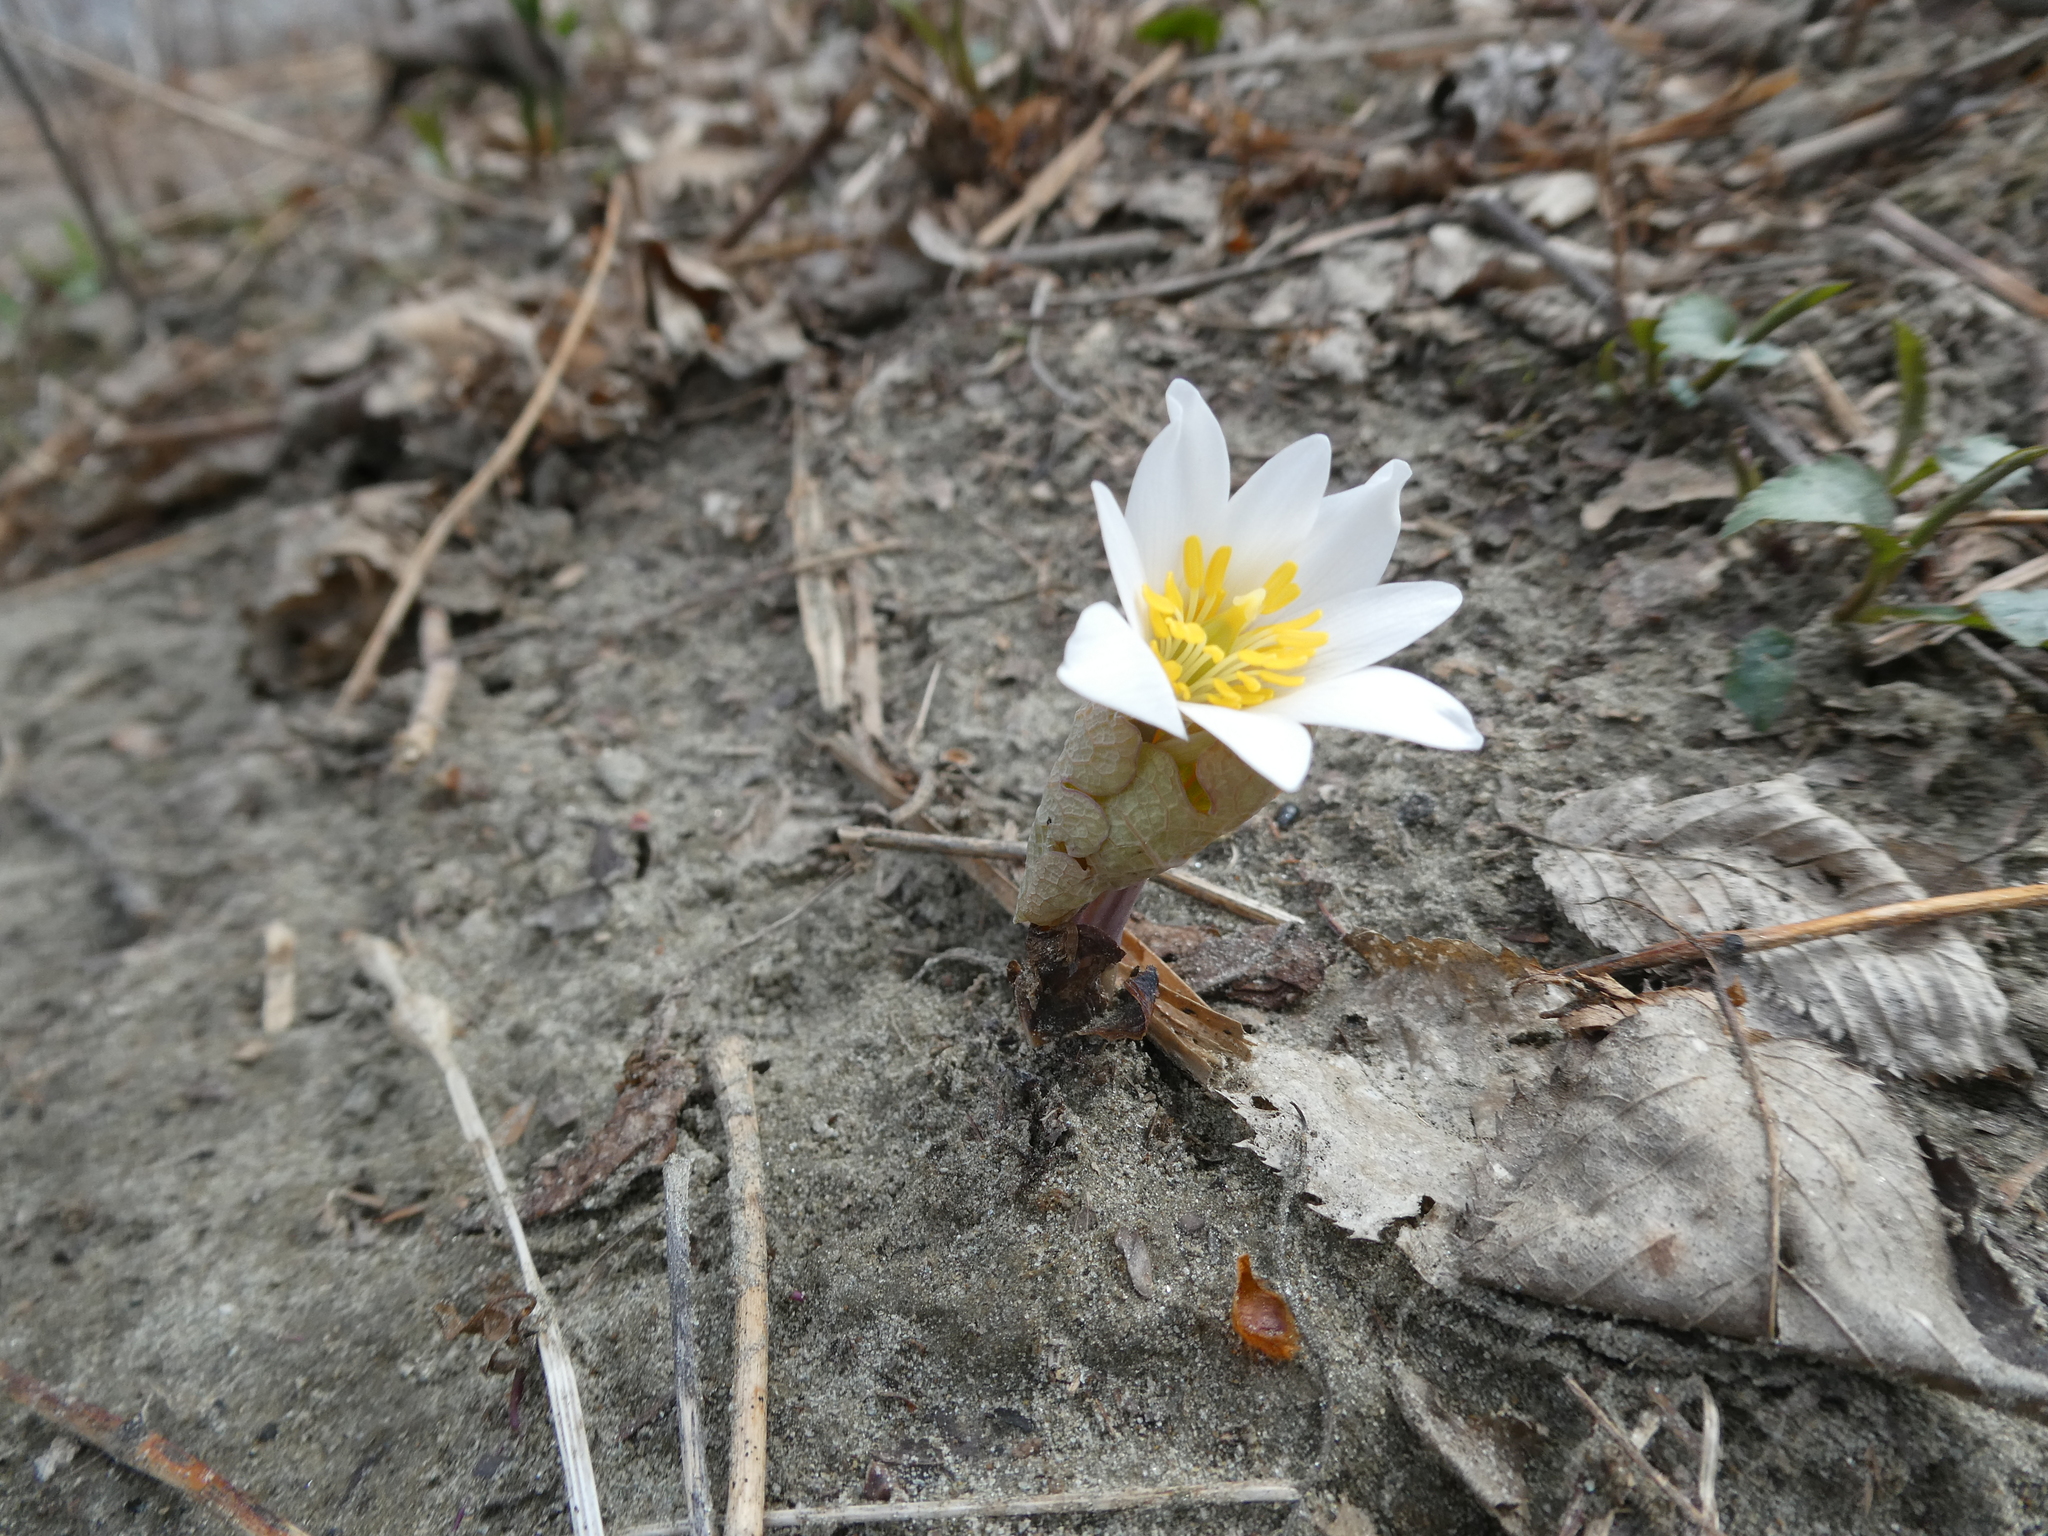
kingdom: Plantae
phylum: Tracheophyta
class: Magnoliopsida
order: Ranunculales
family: Papaveraceae
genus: Sanguinaria
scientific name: Sanguinaria canadensis
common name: Bloodroot
